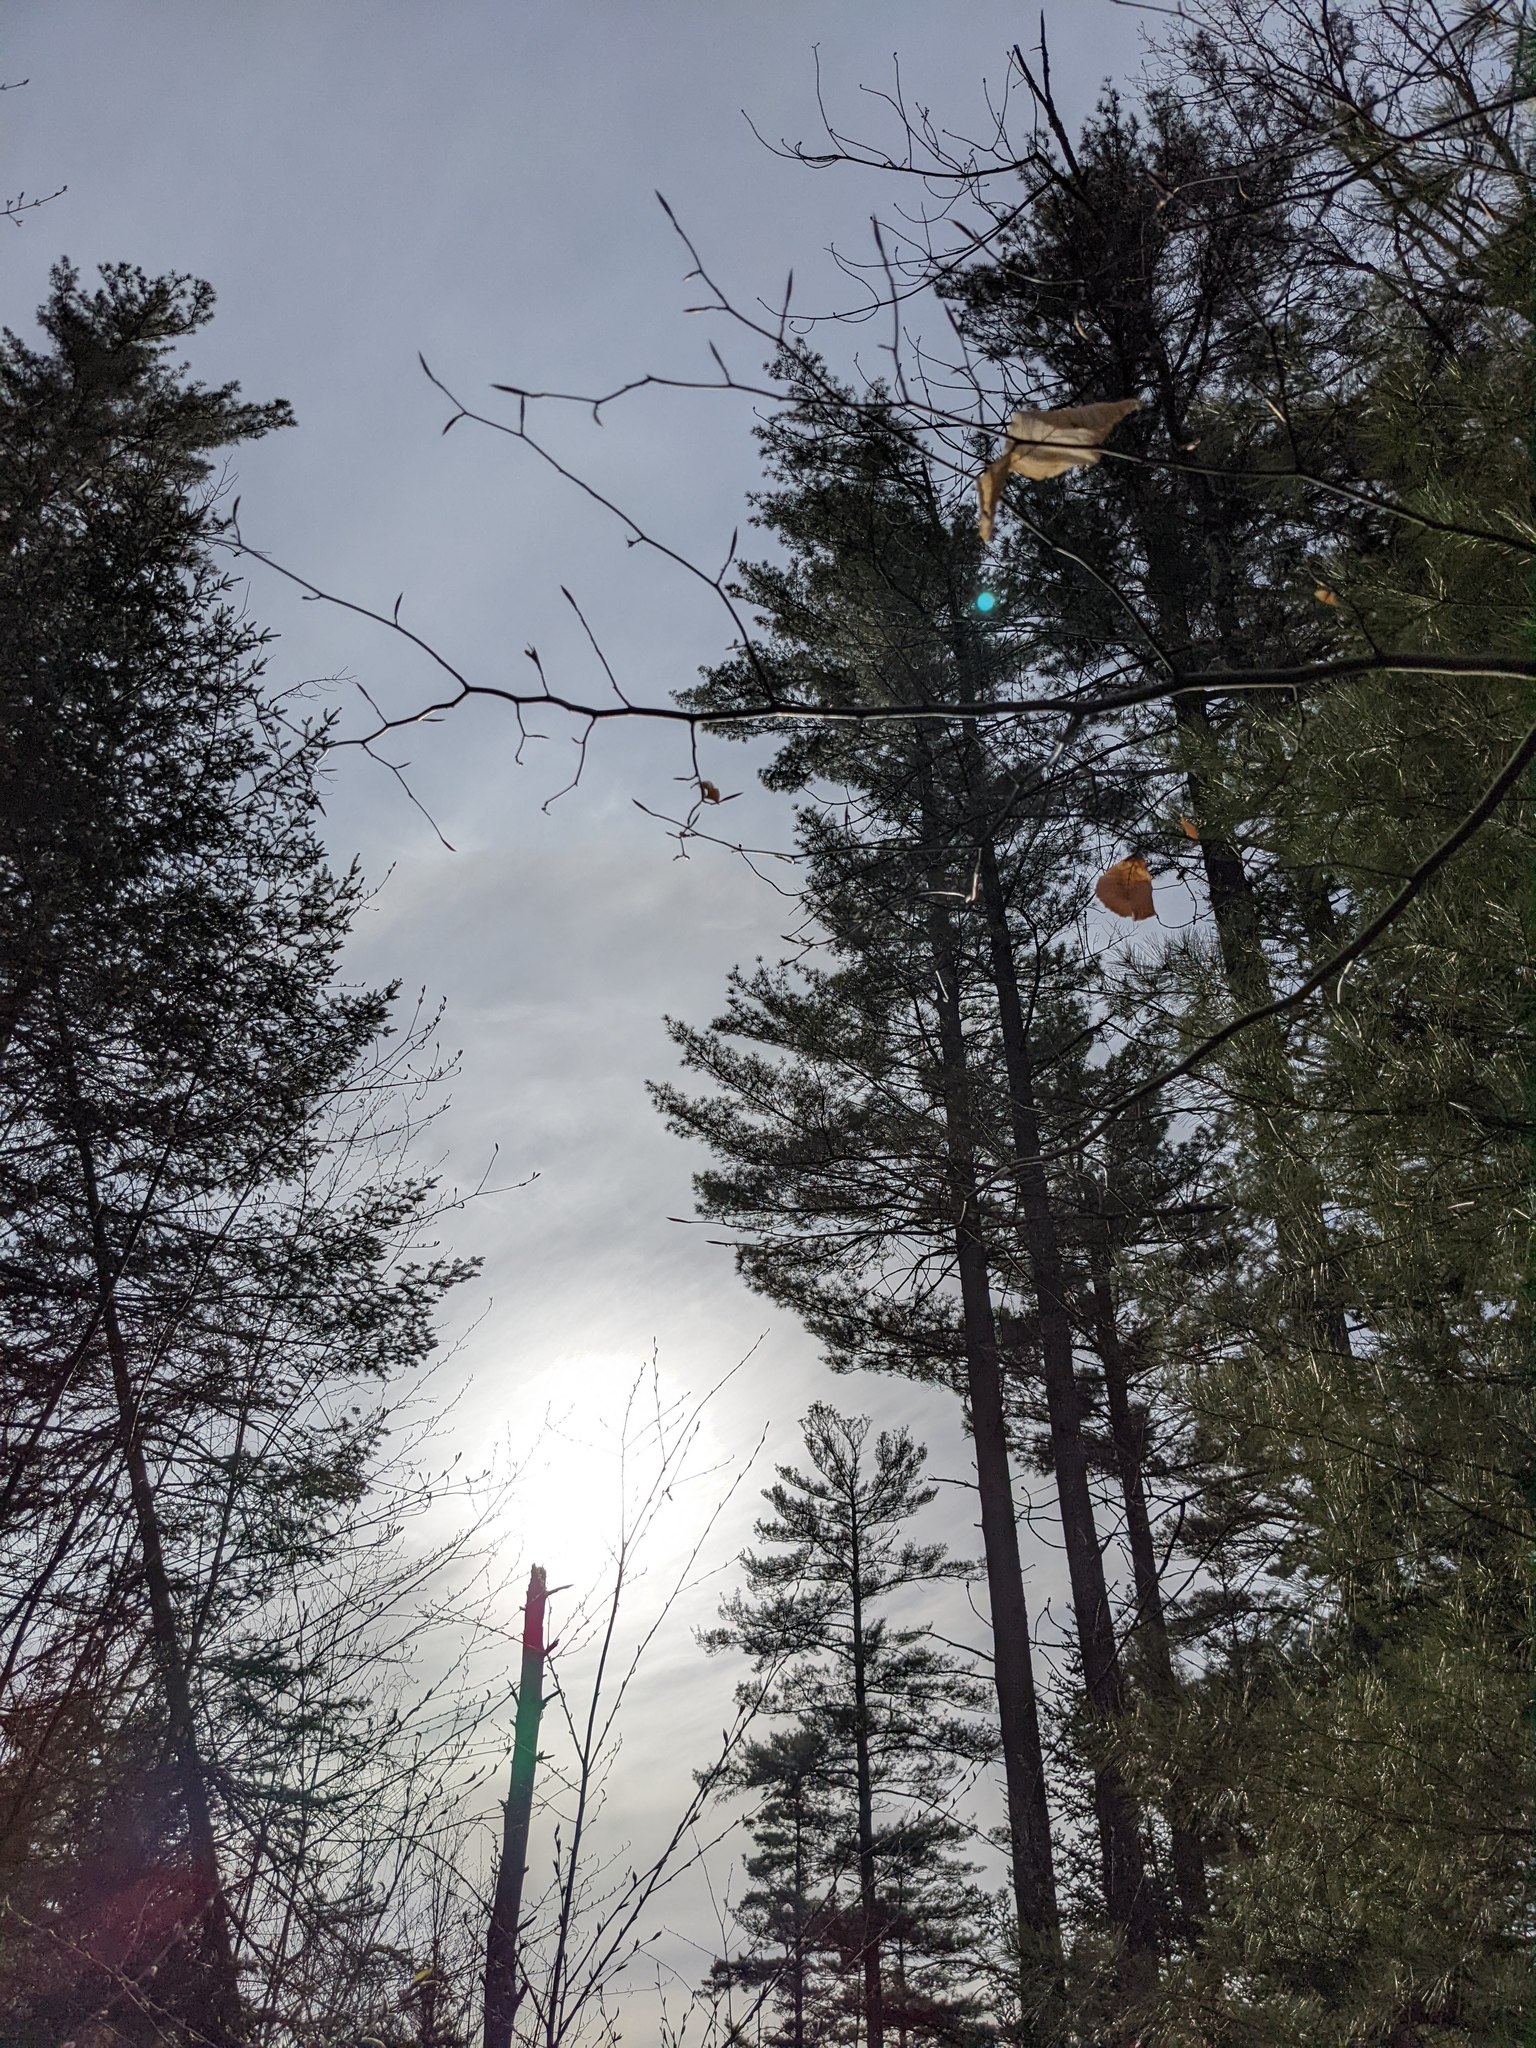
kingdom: Plantae
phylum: Tracheophyta
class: Pinopsida
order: Pinales
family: Pinaceae
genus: Pinus
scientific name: Pinus strobus
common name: Weymouth pine
